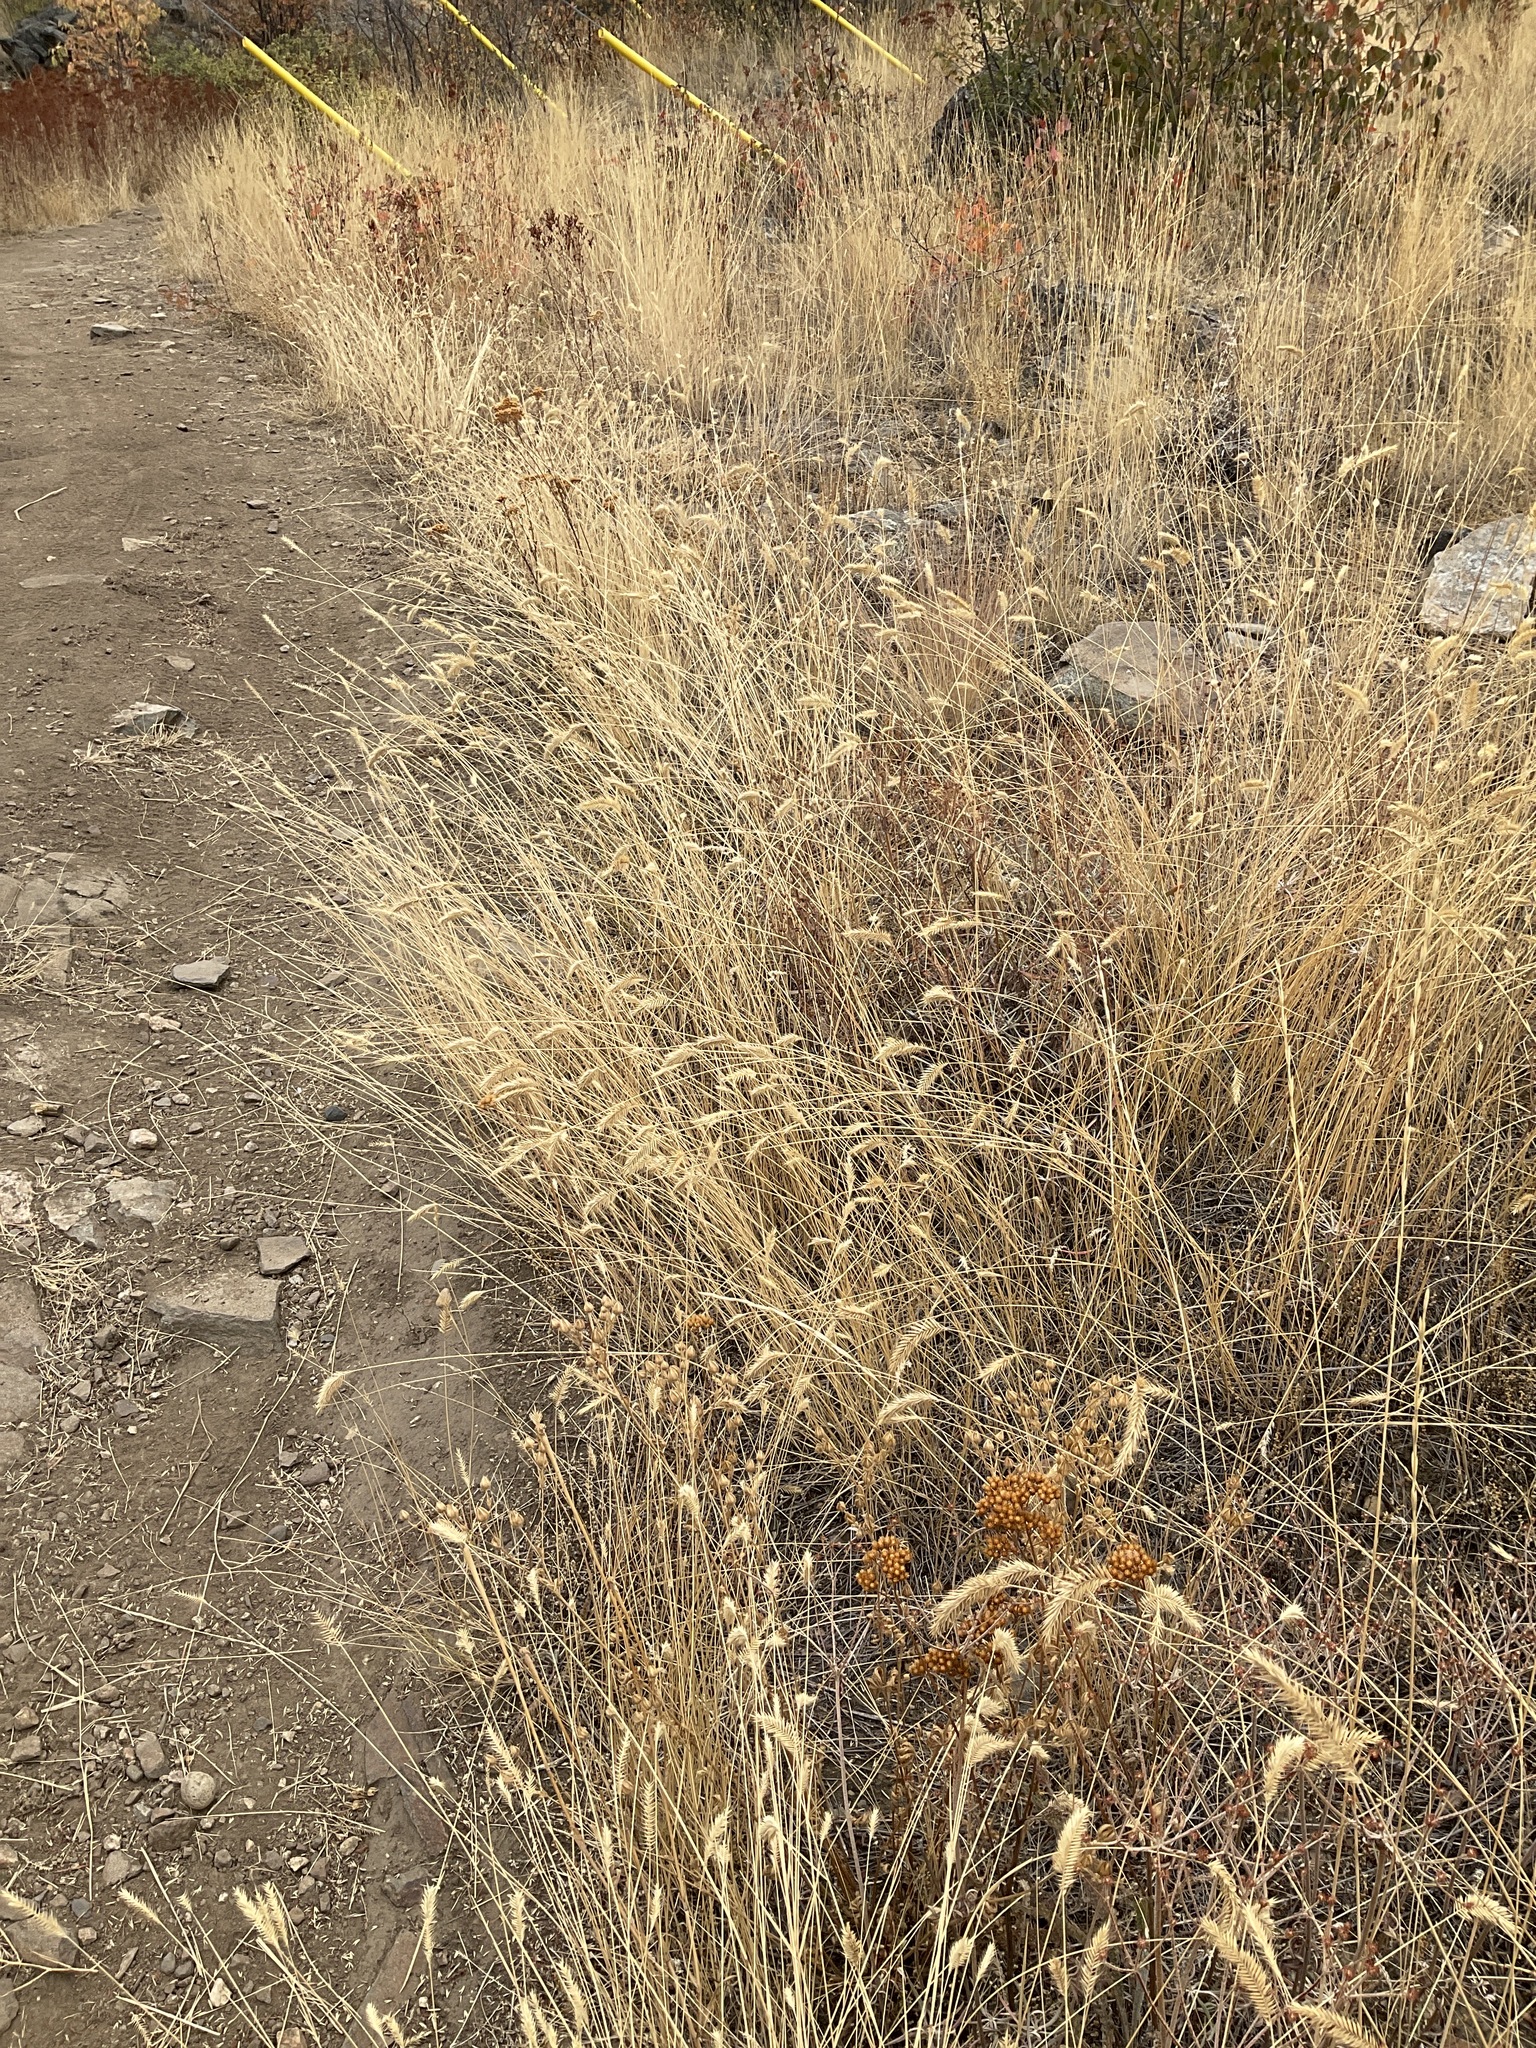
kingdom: Plantae
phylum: Tracheophyta
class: Liliopsida
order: Poales
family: Poaceae
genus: Agropyron
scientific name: Agropyron cristatum
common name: Crested wheatgrass
